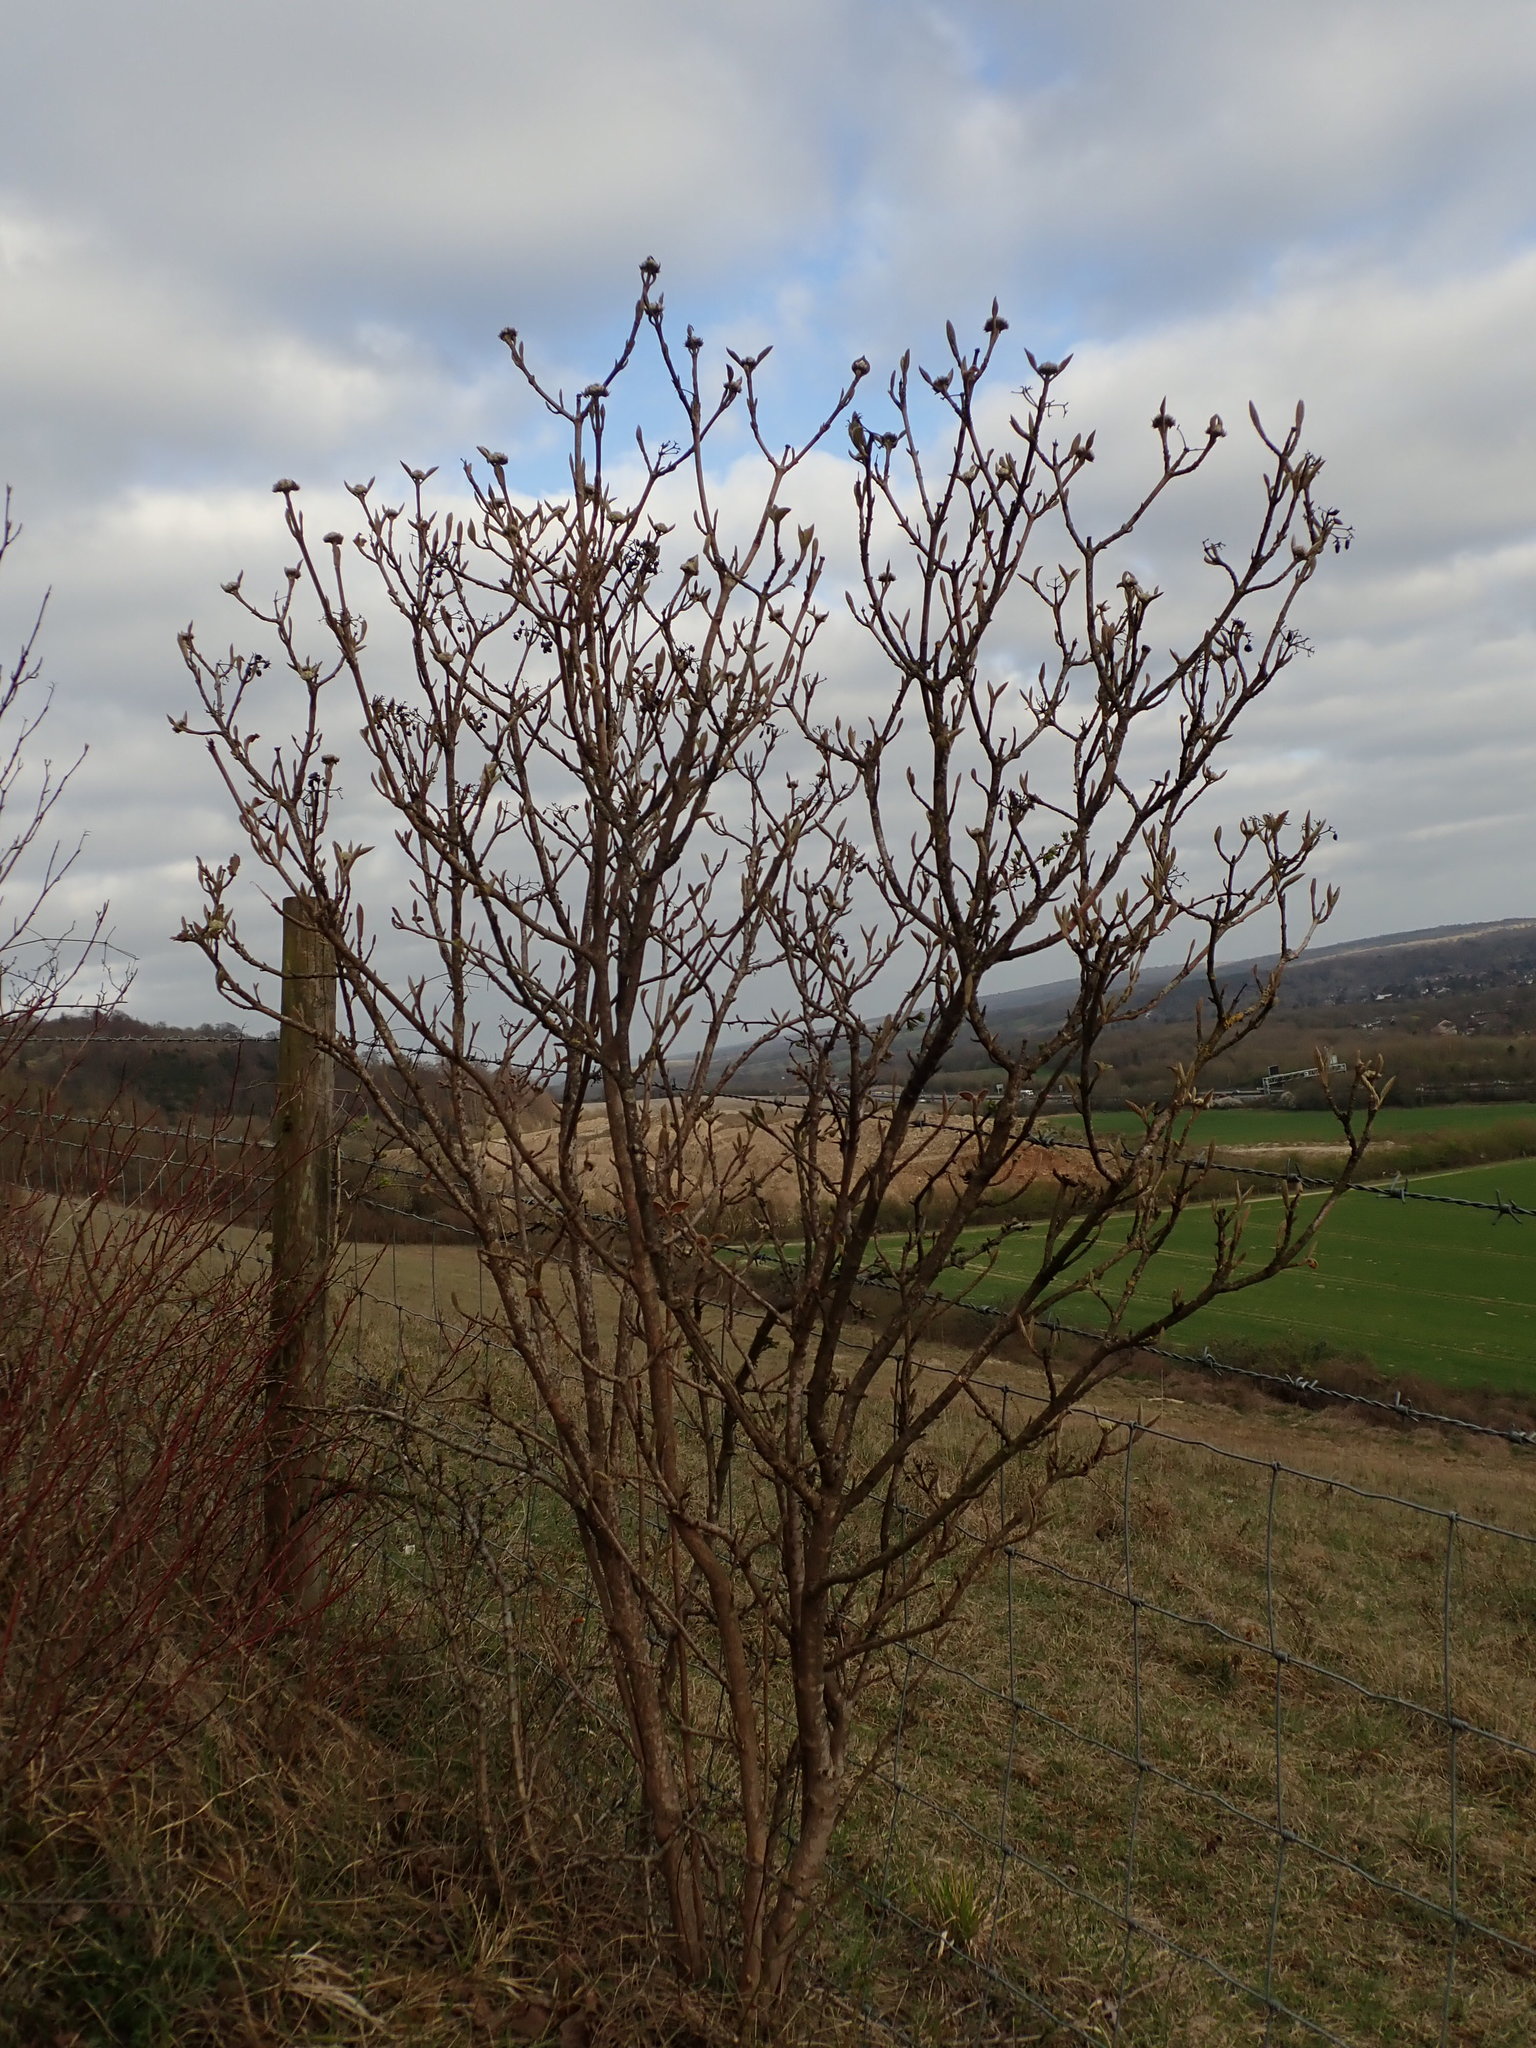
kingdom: Plantae
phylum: Tracheophyta
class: Magnoliopsida
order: Dipsacales
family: Viburnaceae
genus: Viburnum
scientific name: Viburnum lantana
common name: Wayfaring tree
